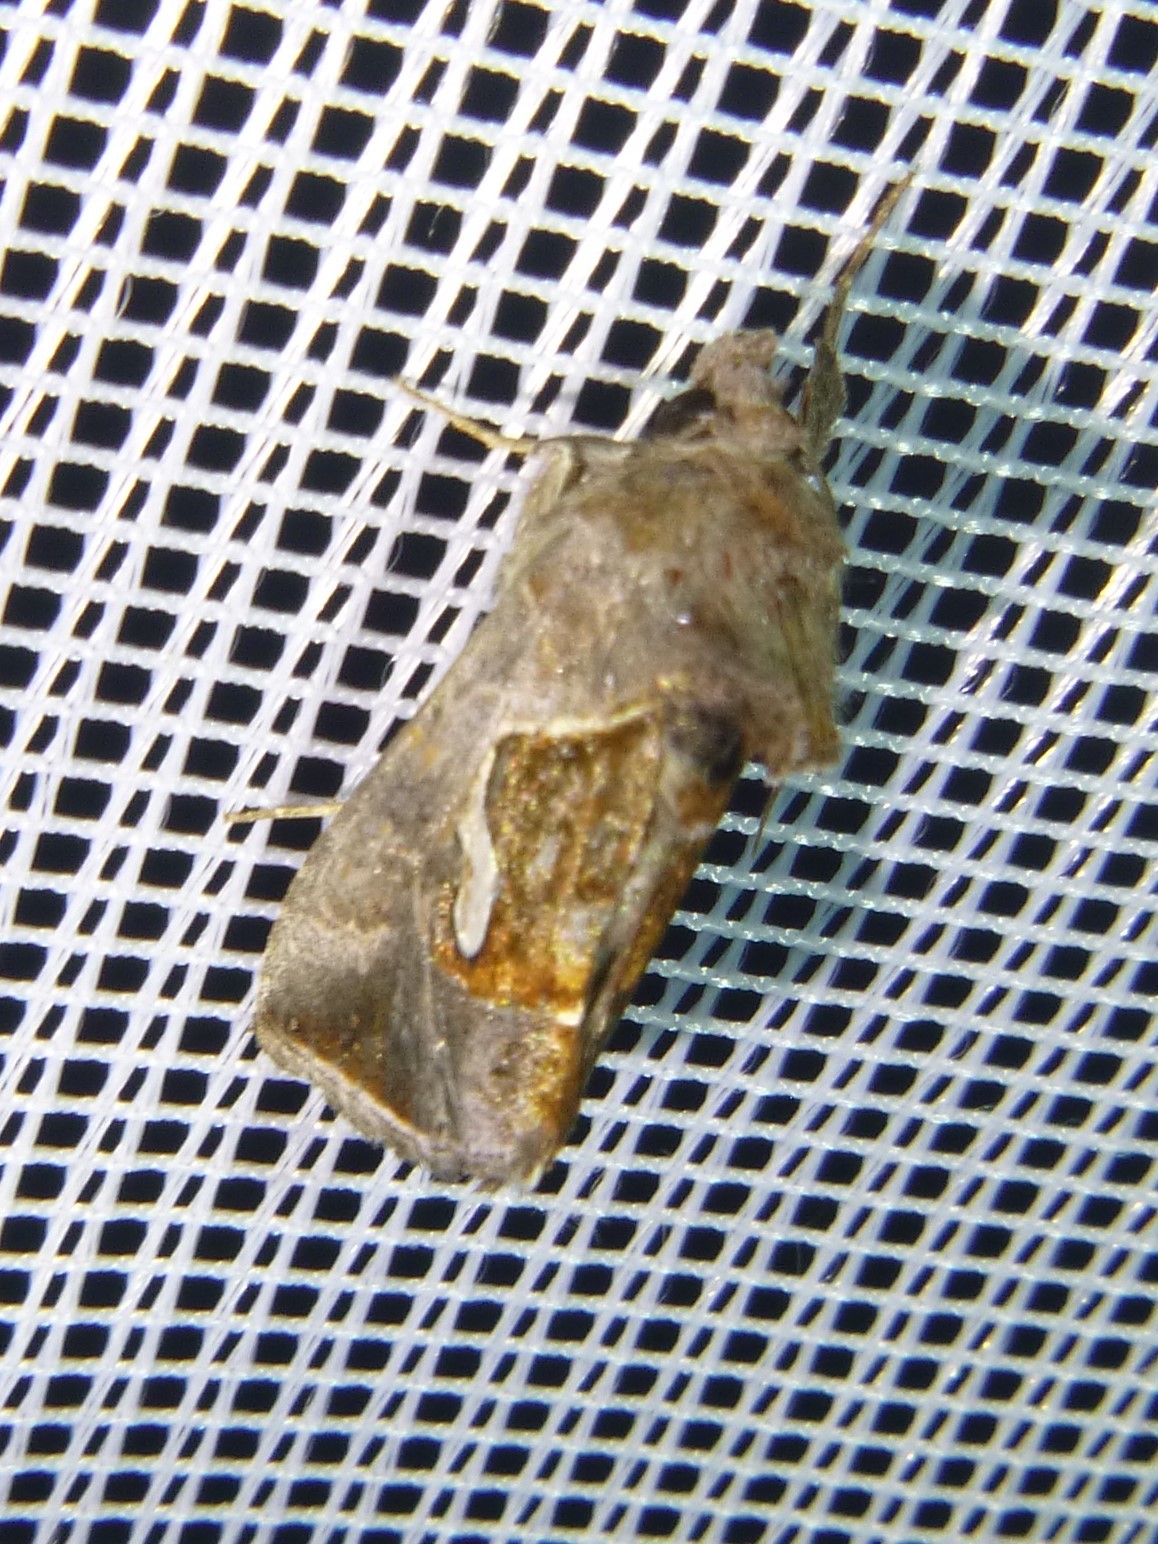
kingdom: Animalia
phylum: Arthropoda
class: Insecta
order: Lepidoptera
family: Noctuidae
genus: Macdunnoughia
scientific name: Macdunnoughia confusa
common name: Dewick's plusia
